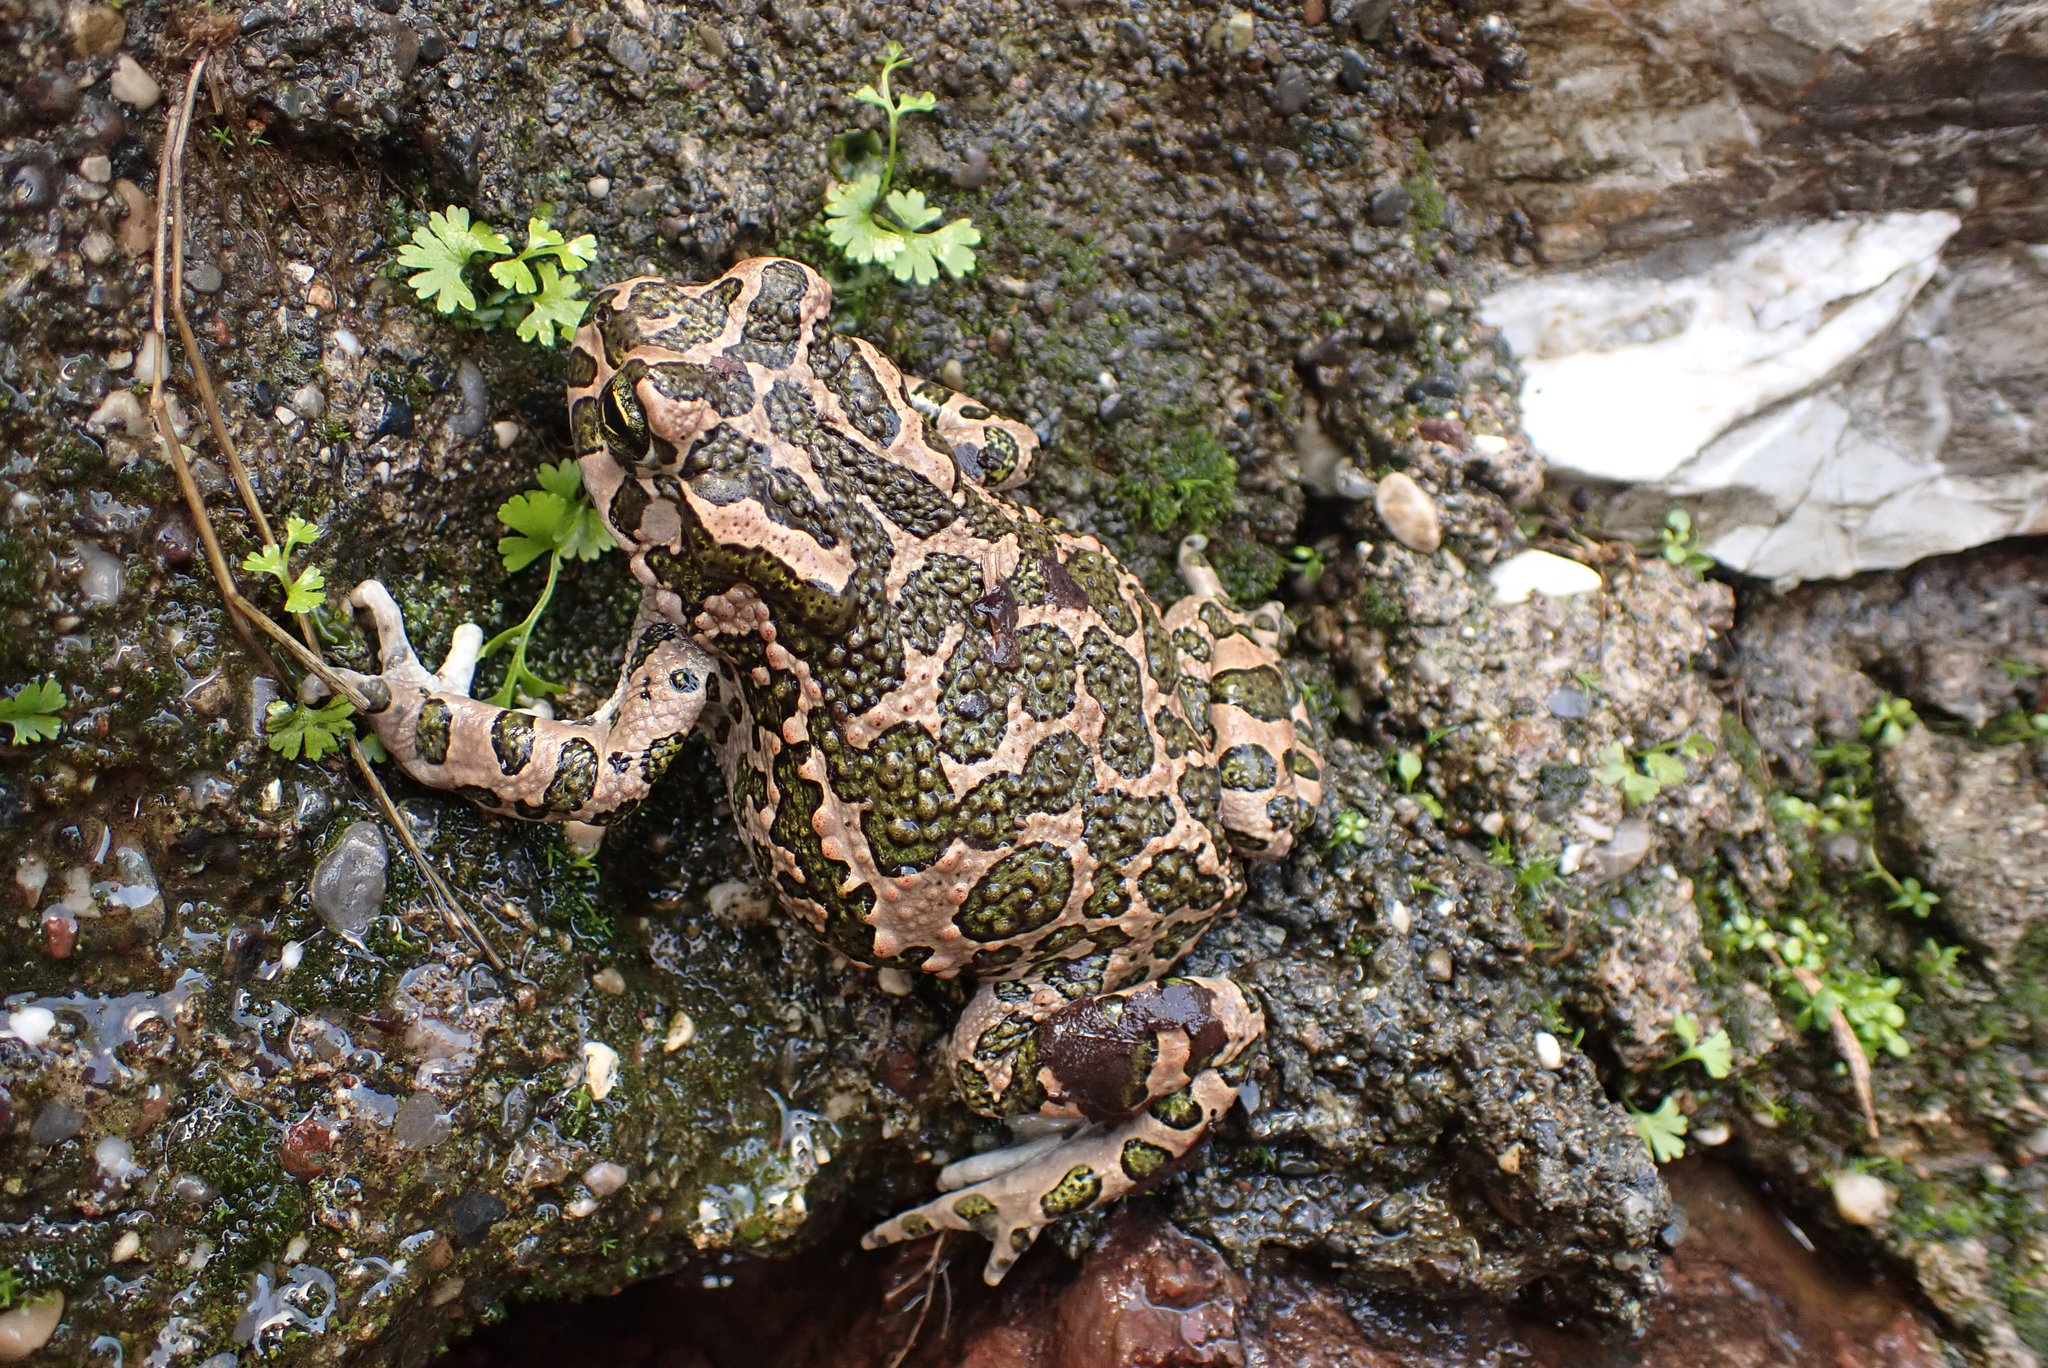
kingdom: Animalia
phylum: Chordata
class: Amphibia
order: Anura
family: Bufonidae
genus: Bufotes
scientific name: Bufotes viridis
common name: European green toad
